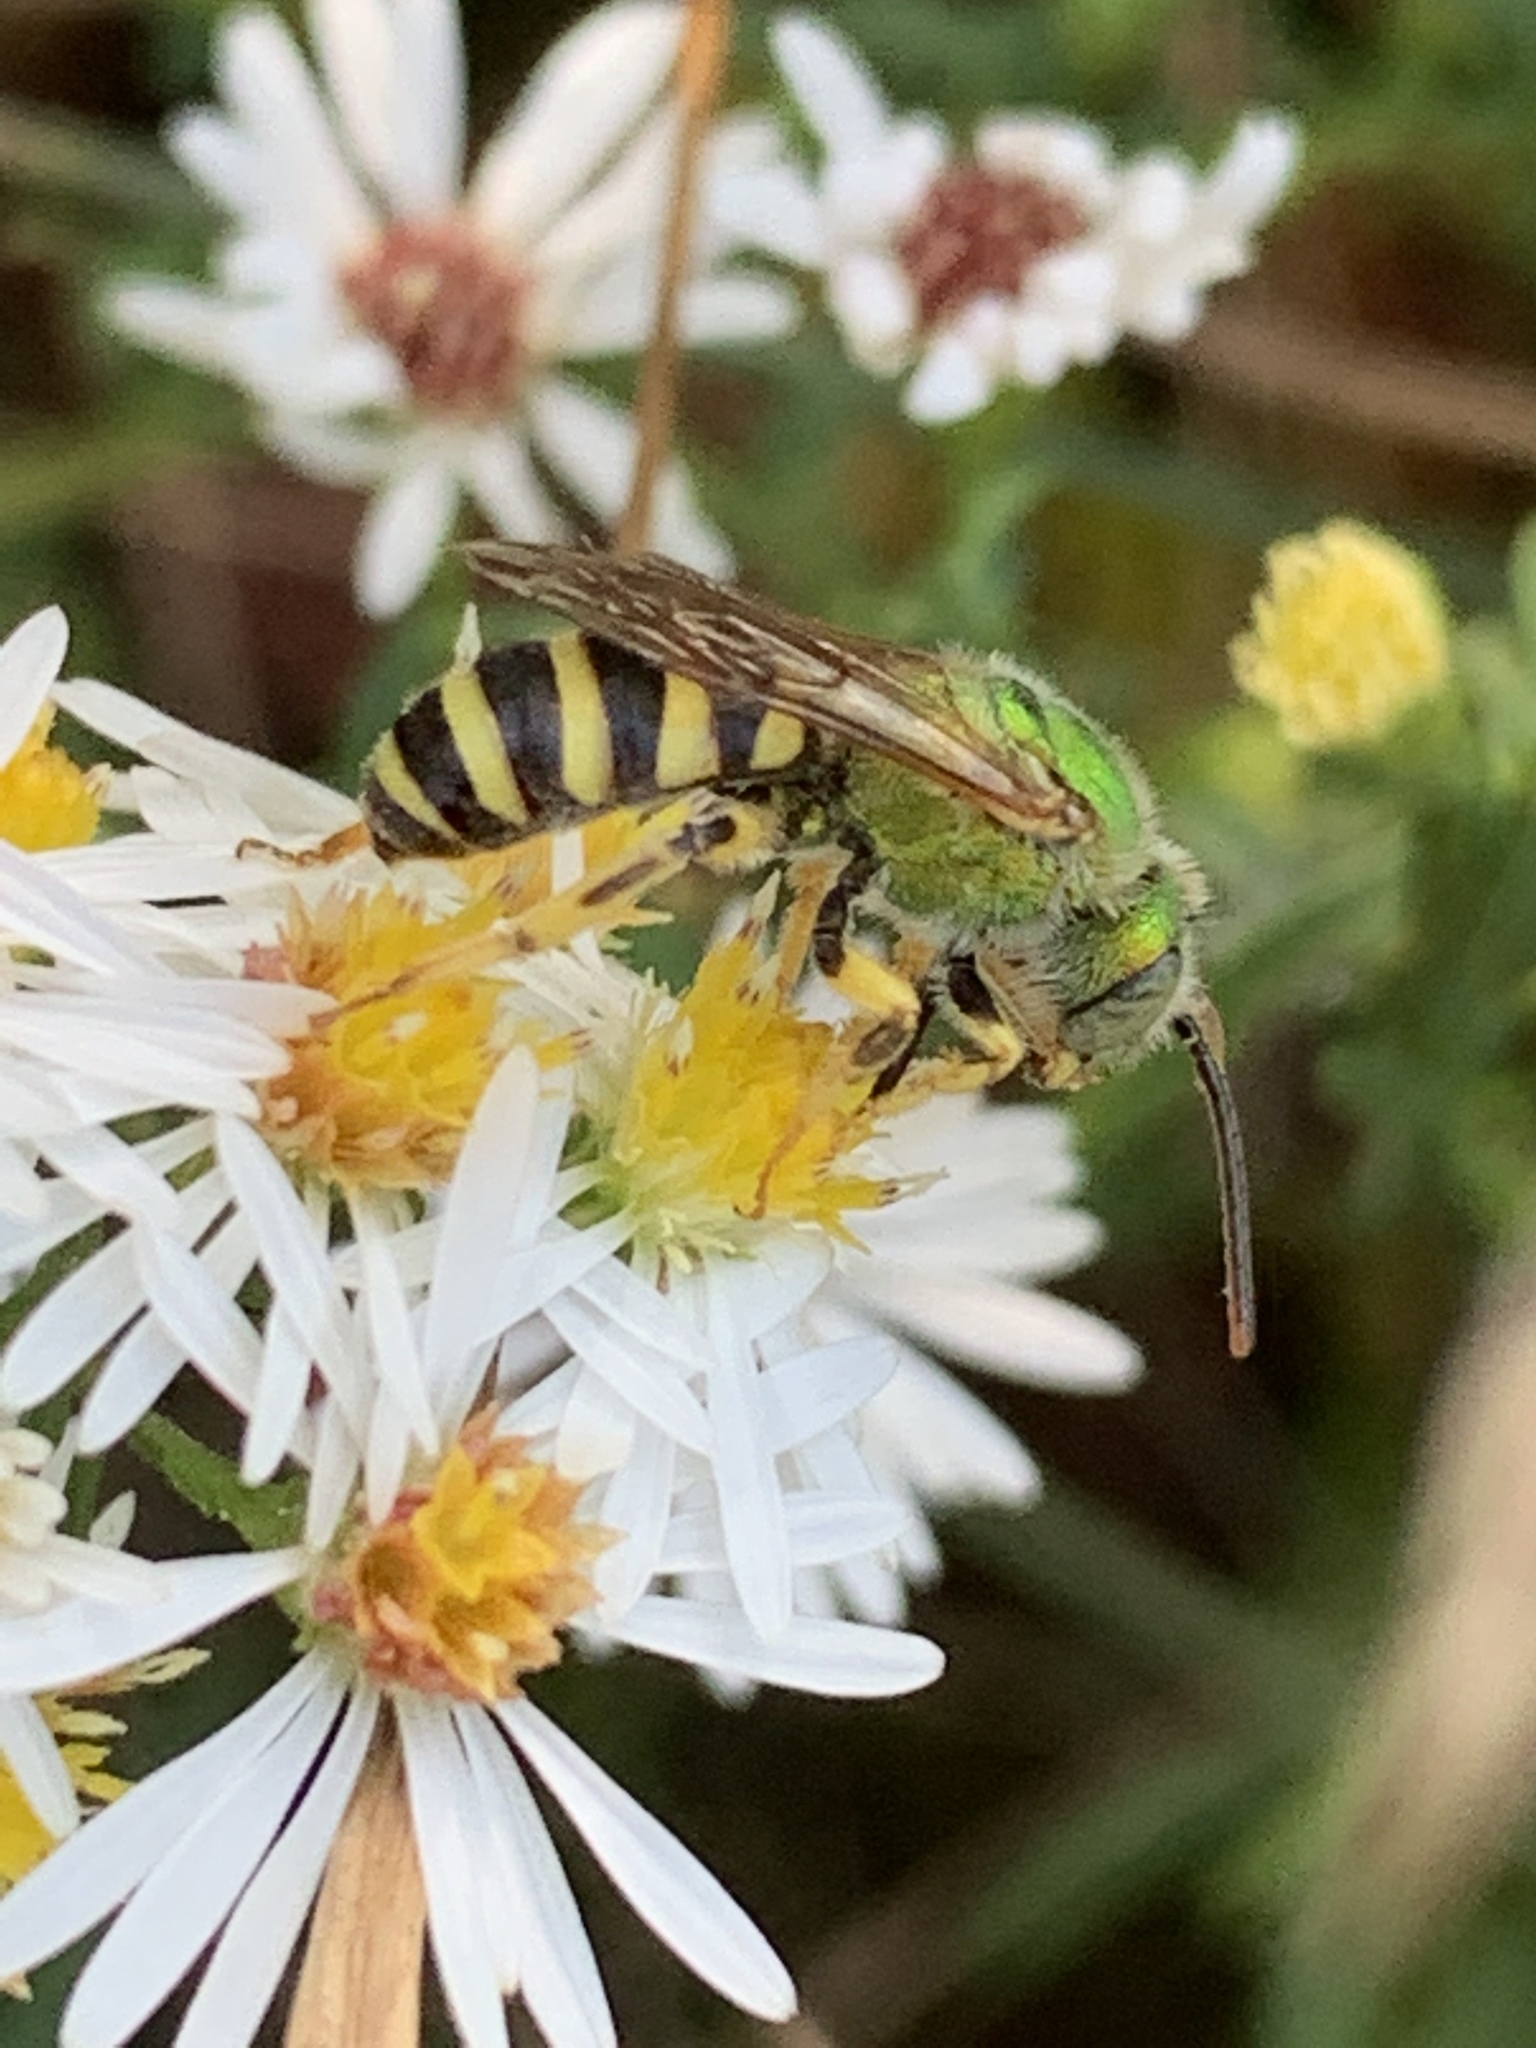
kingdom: Animalia
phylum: Arthropoda
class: Insecta
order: Hymenoptera
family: Halictidae
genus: Agapostemon
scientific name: Agapostemon virescens
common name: Bicolored striped sweat bee
